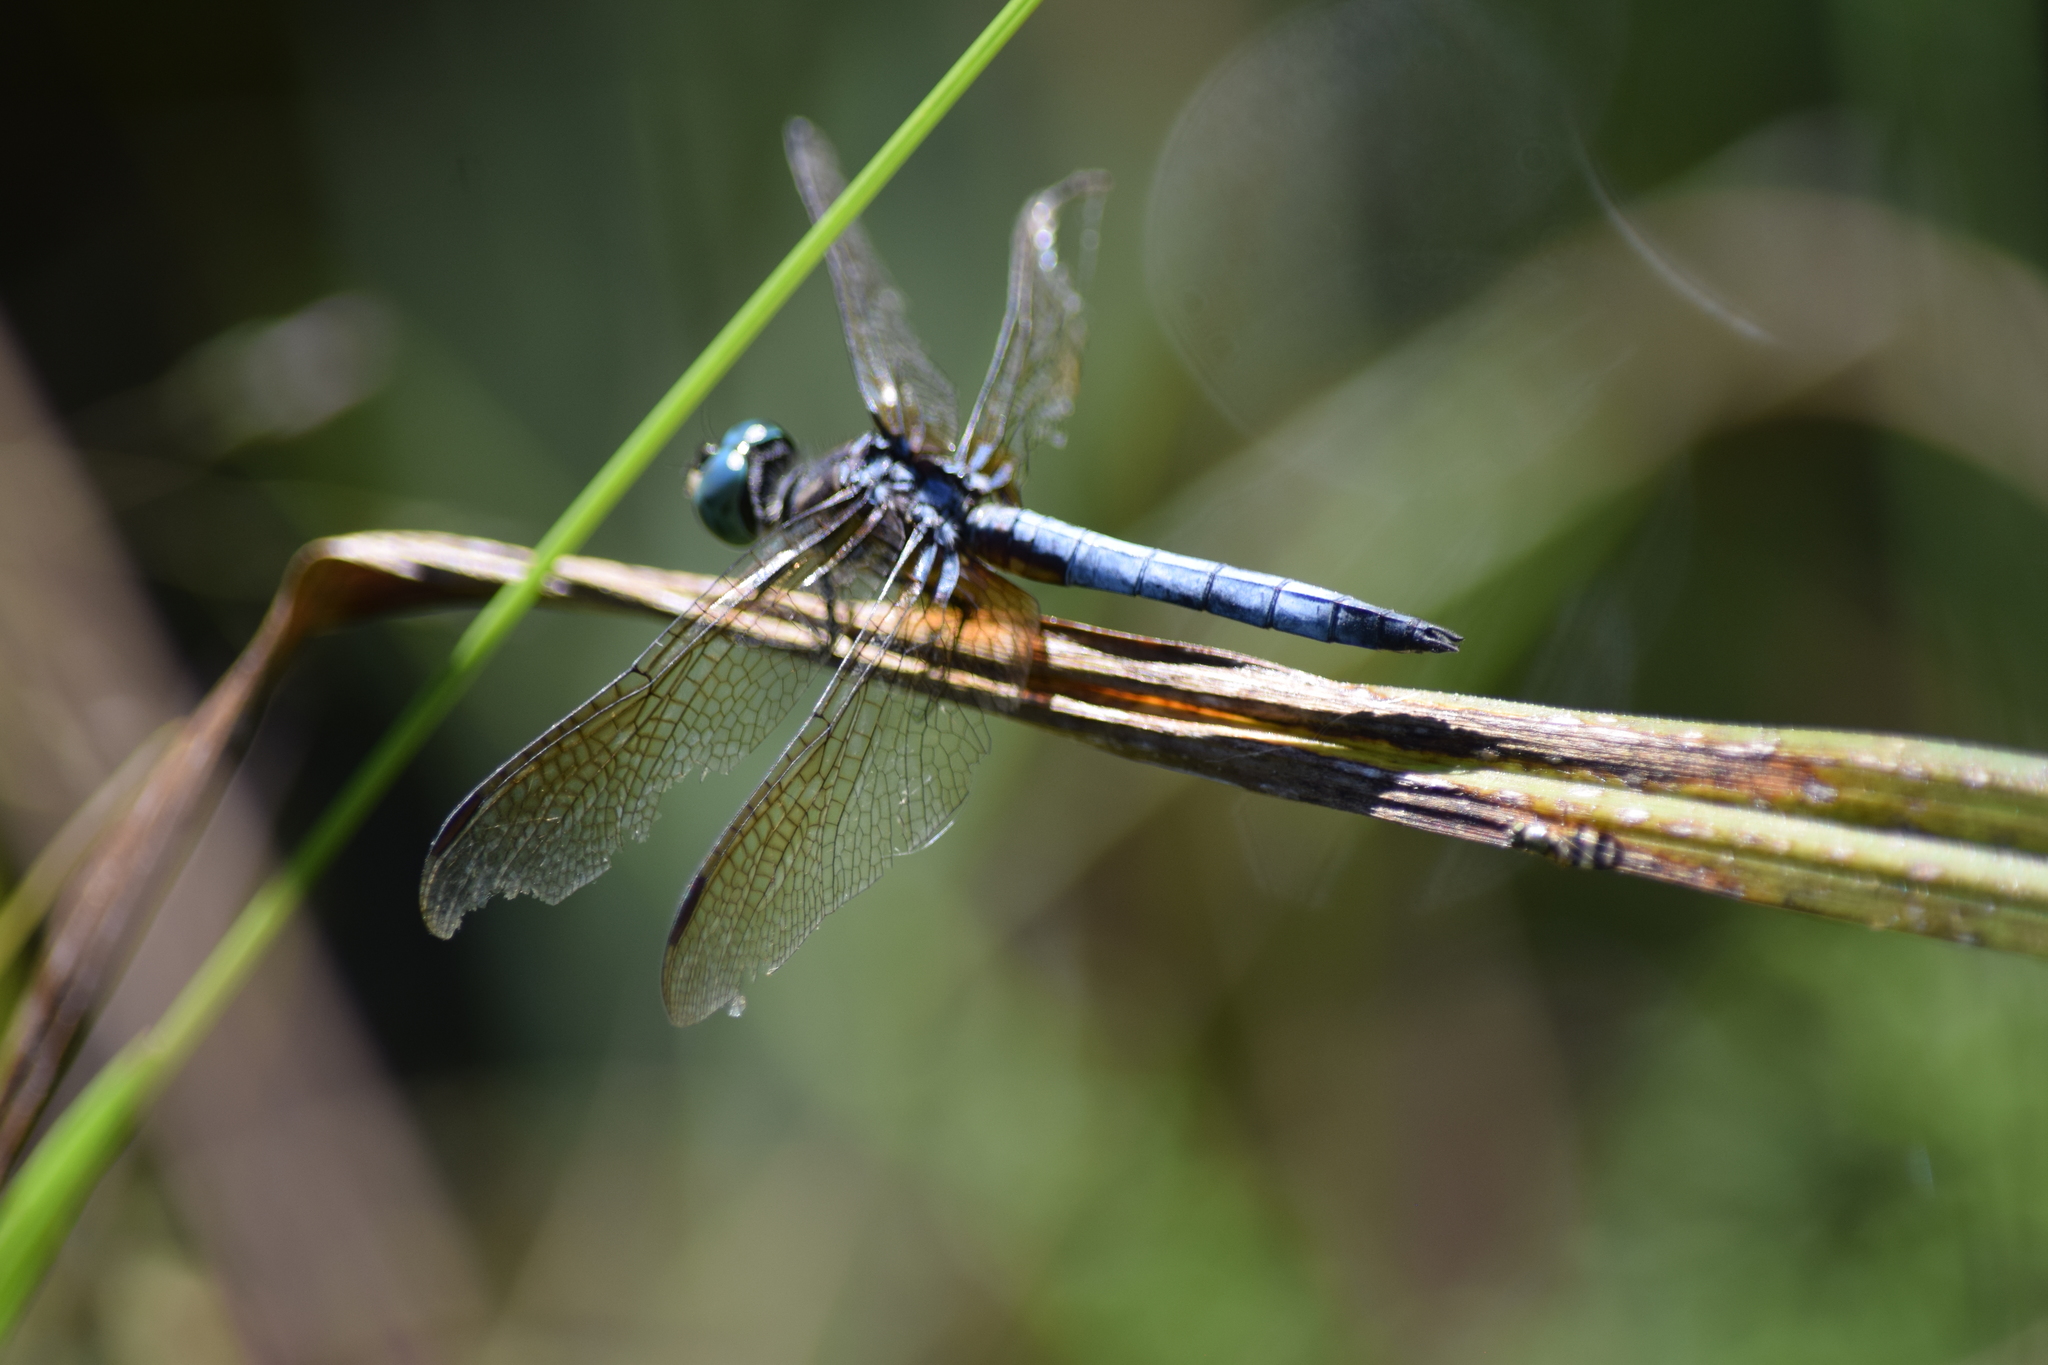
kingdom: Animalia
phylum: Arthropoda
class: Insecta
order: Odonata
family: Libellulidae
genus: Pachydiplax
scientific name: Pachydiplax longipennis
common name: Blue dasher
